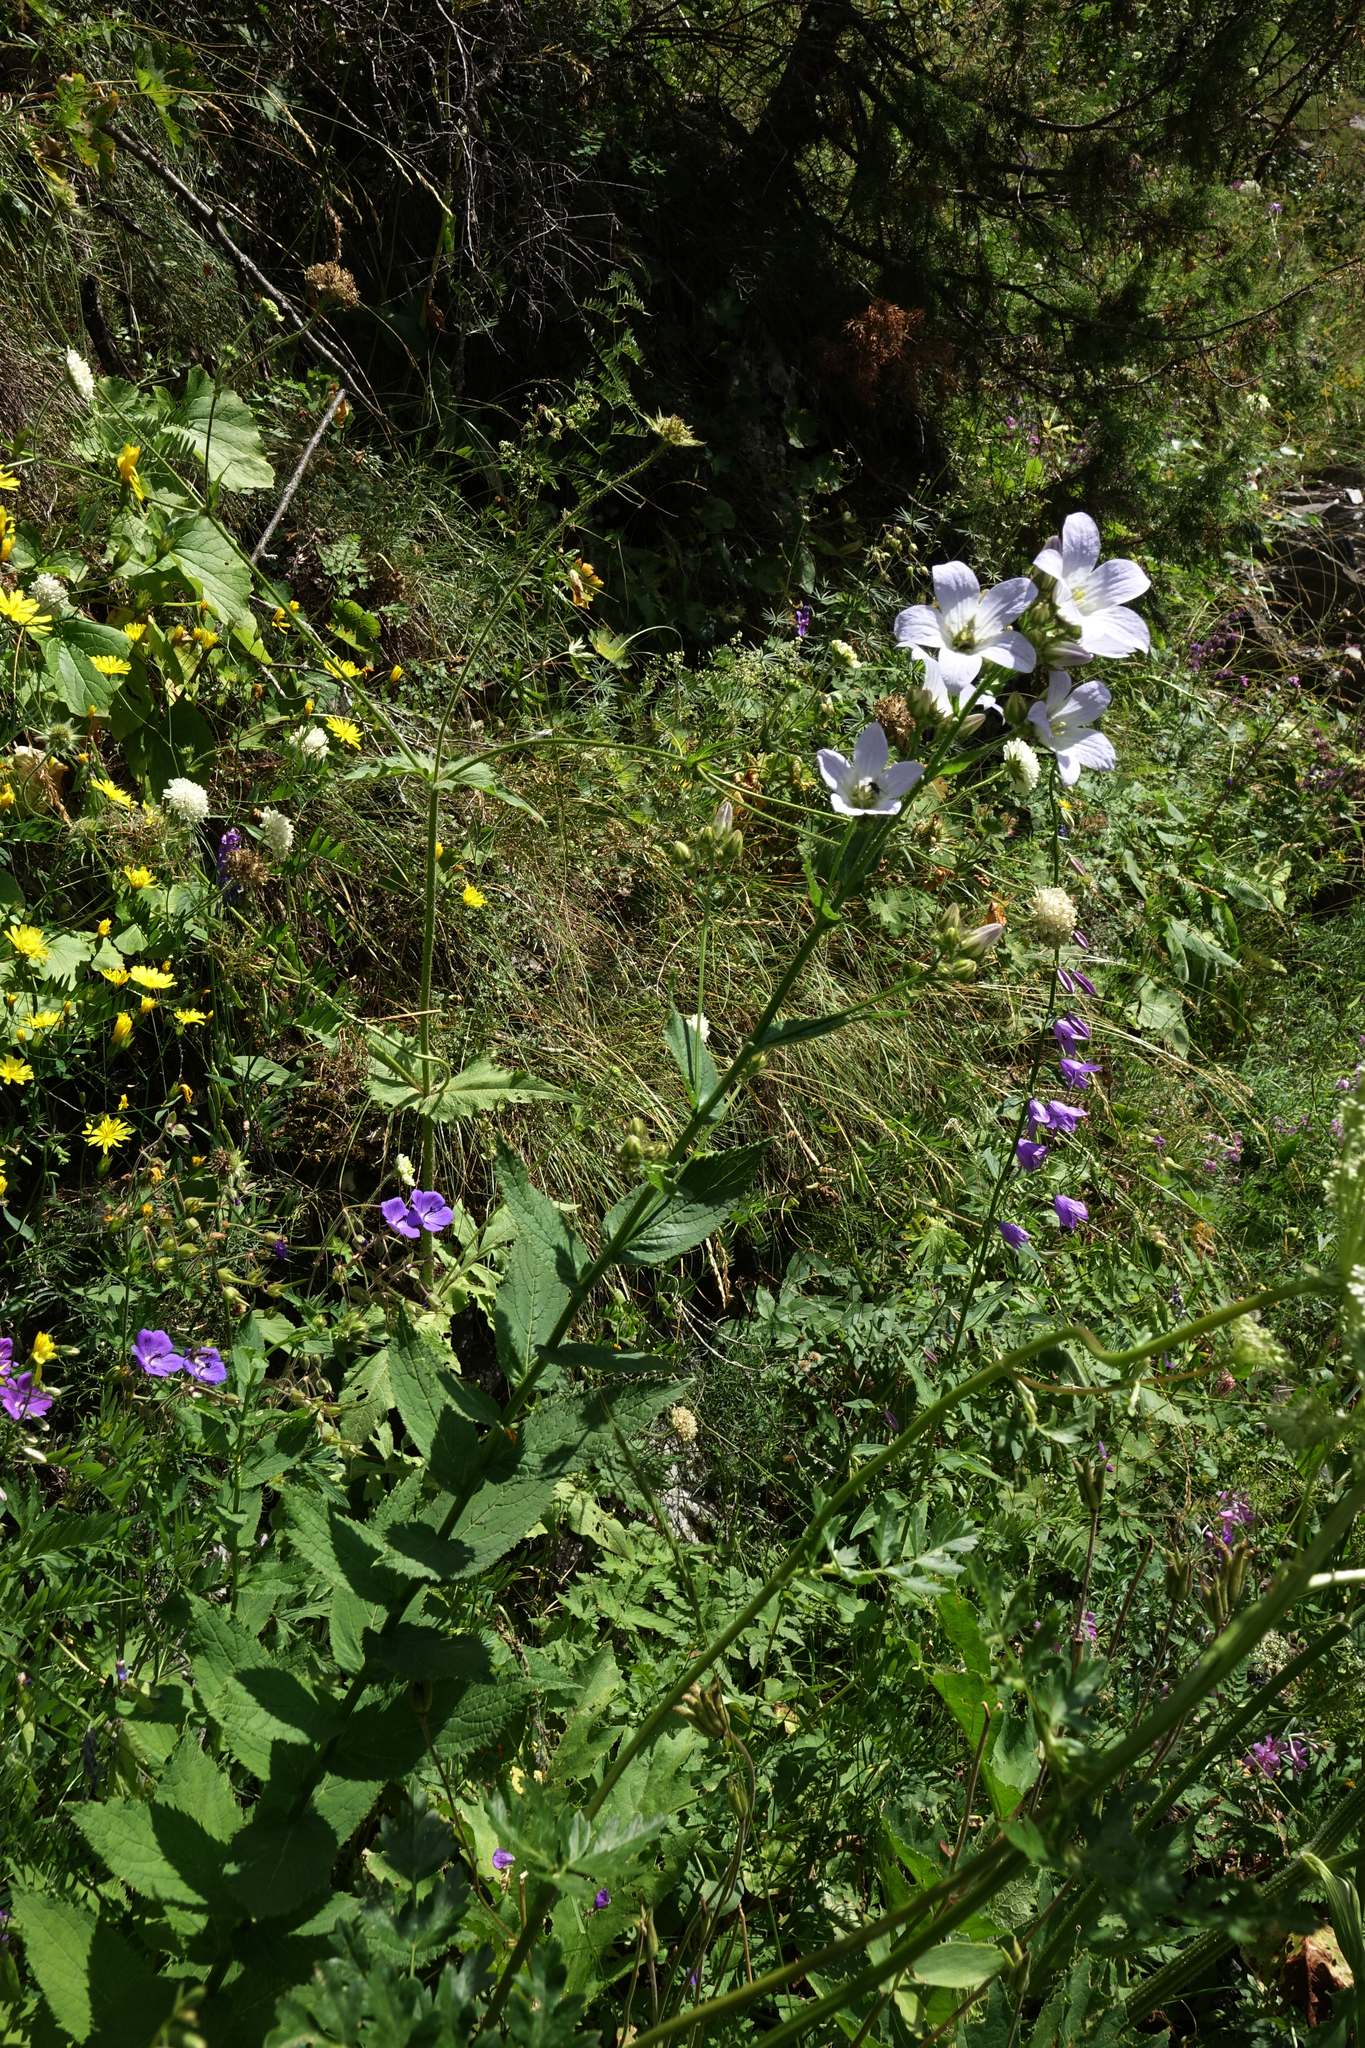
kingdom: Plantae
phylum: Tracheophyta
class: Magnoliopsida
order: Asterales
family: Campanulaceae
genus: Campanula
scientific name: Campanula lactiflora
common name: Milky bellflower
